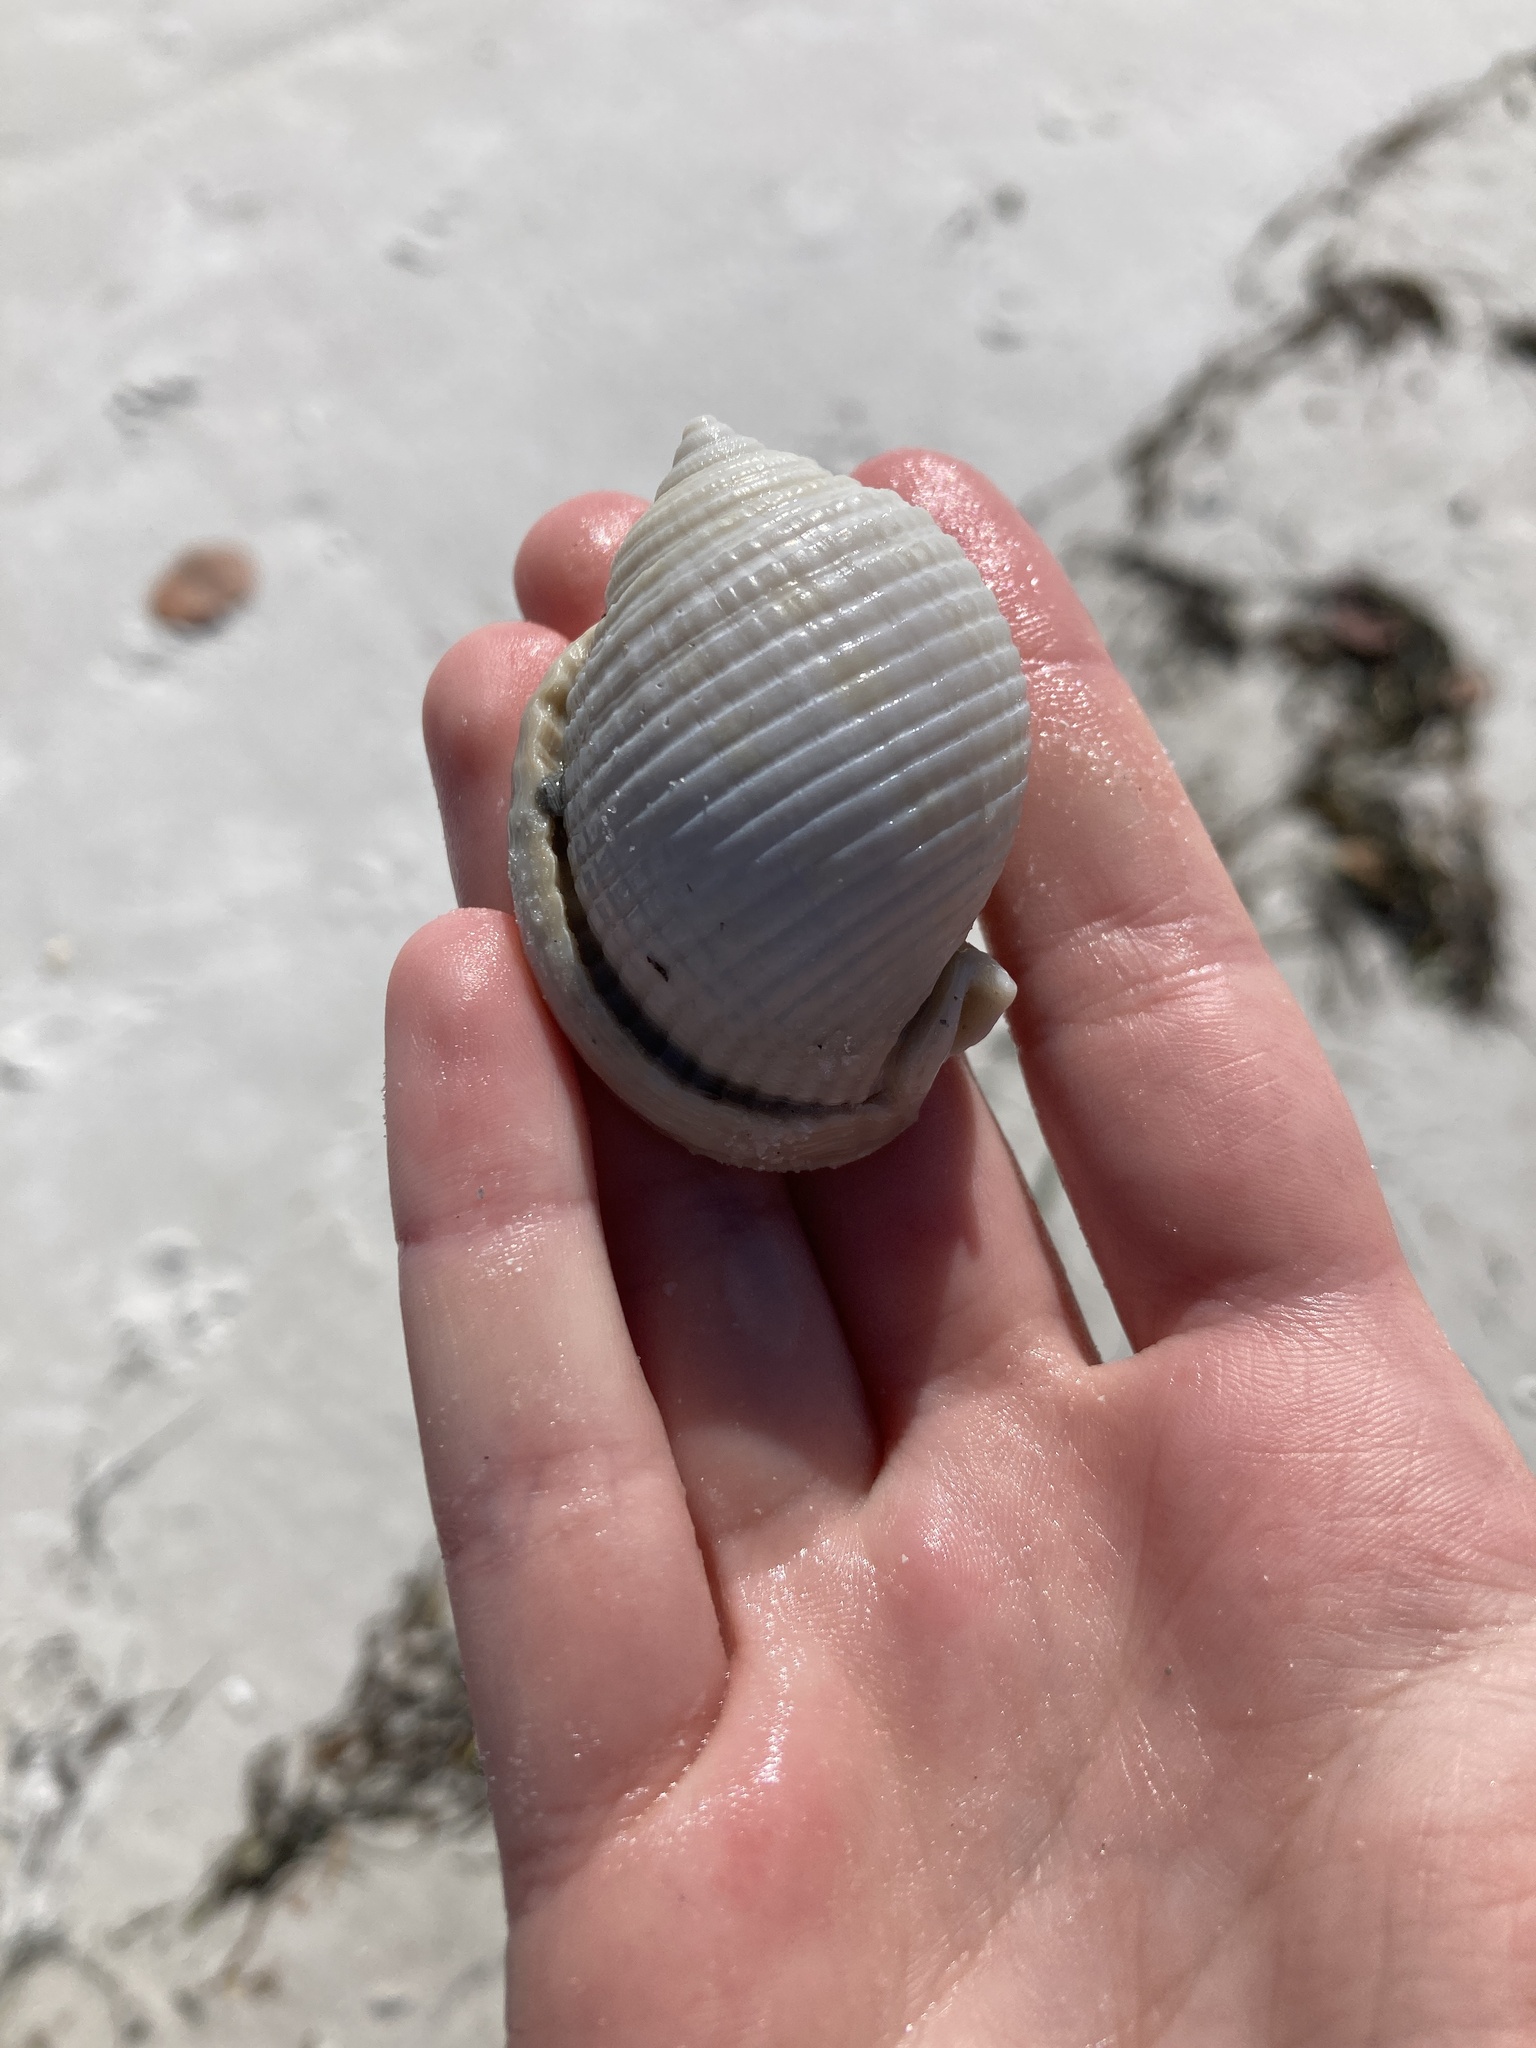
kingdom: Animalia
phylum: Mollusca
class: Gastropoda
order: Littorinimorpha
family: Cassidae
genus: Semicassis
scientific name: Semicassis granulata
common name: Scotch bonnet
